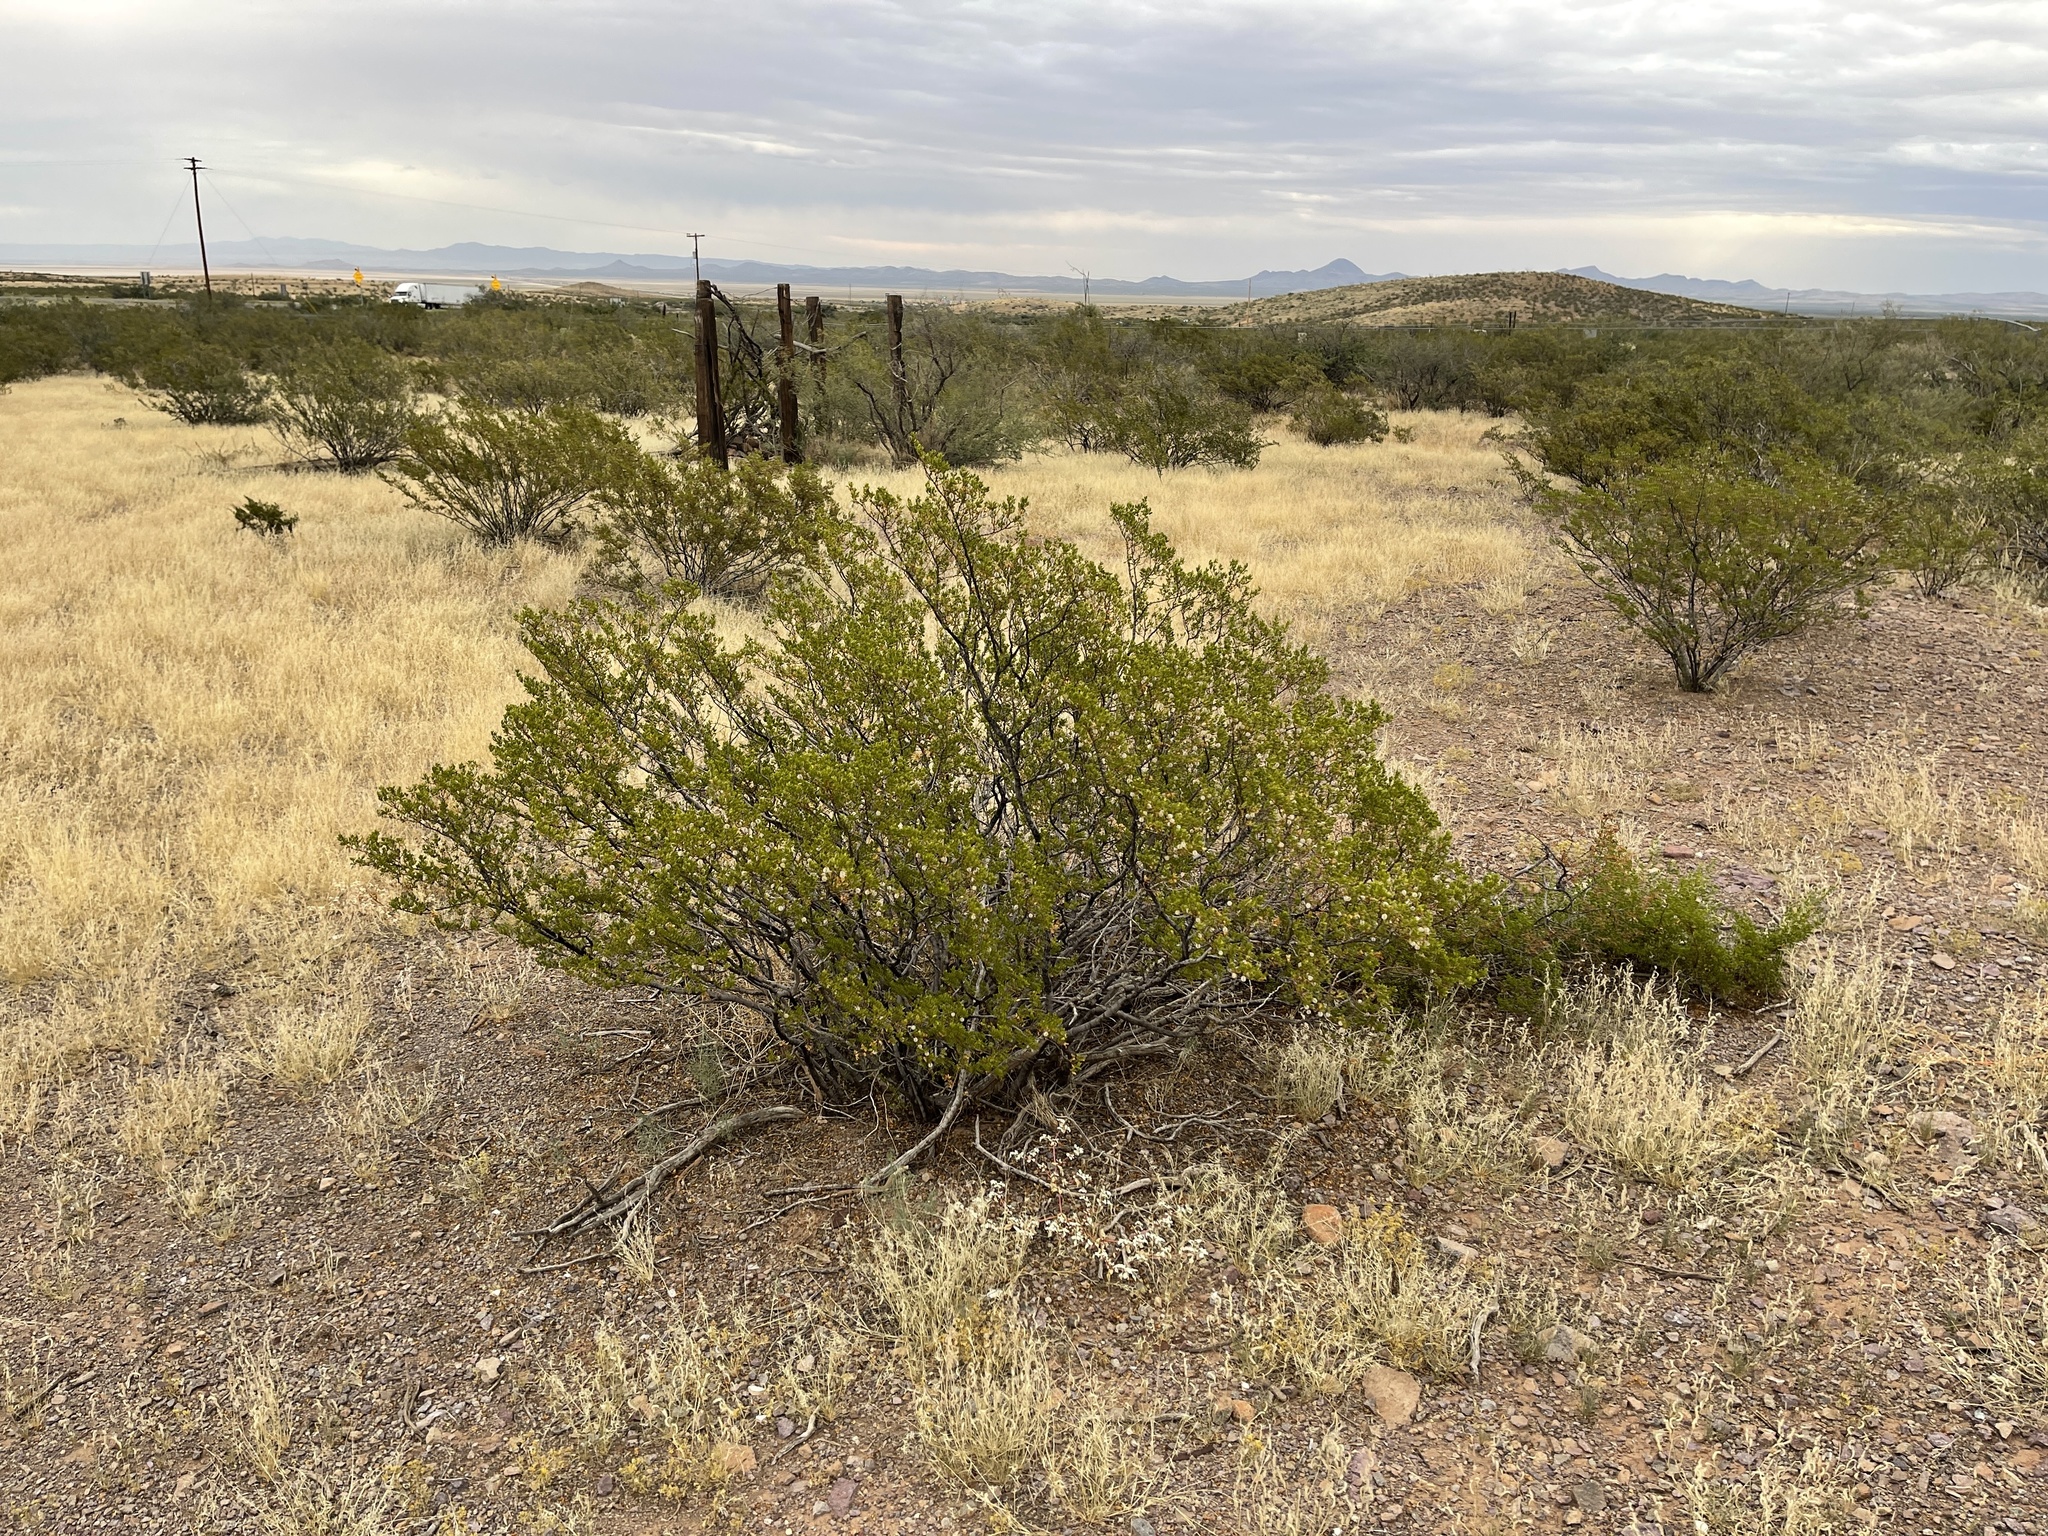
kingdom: Plantae
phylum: Tracheophyta
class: Magnoliopsida
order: Zygophyllales
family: Zygophyllaceae
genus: Larrea
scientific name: Larrea tridentata
